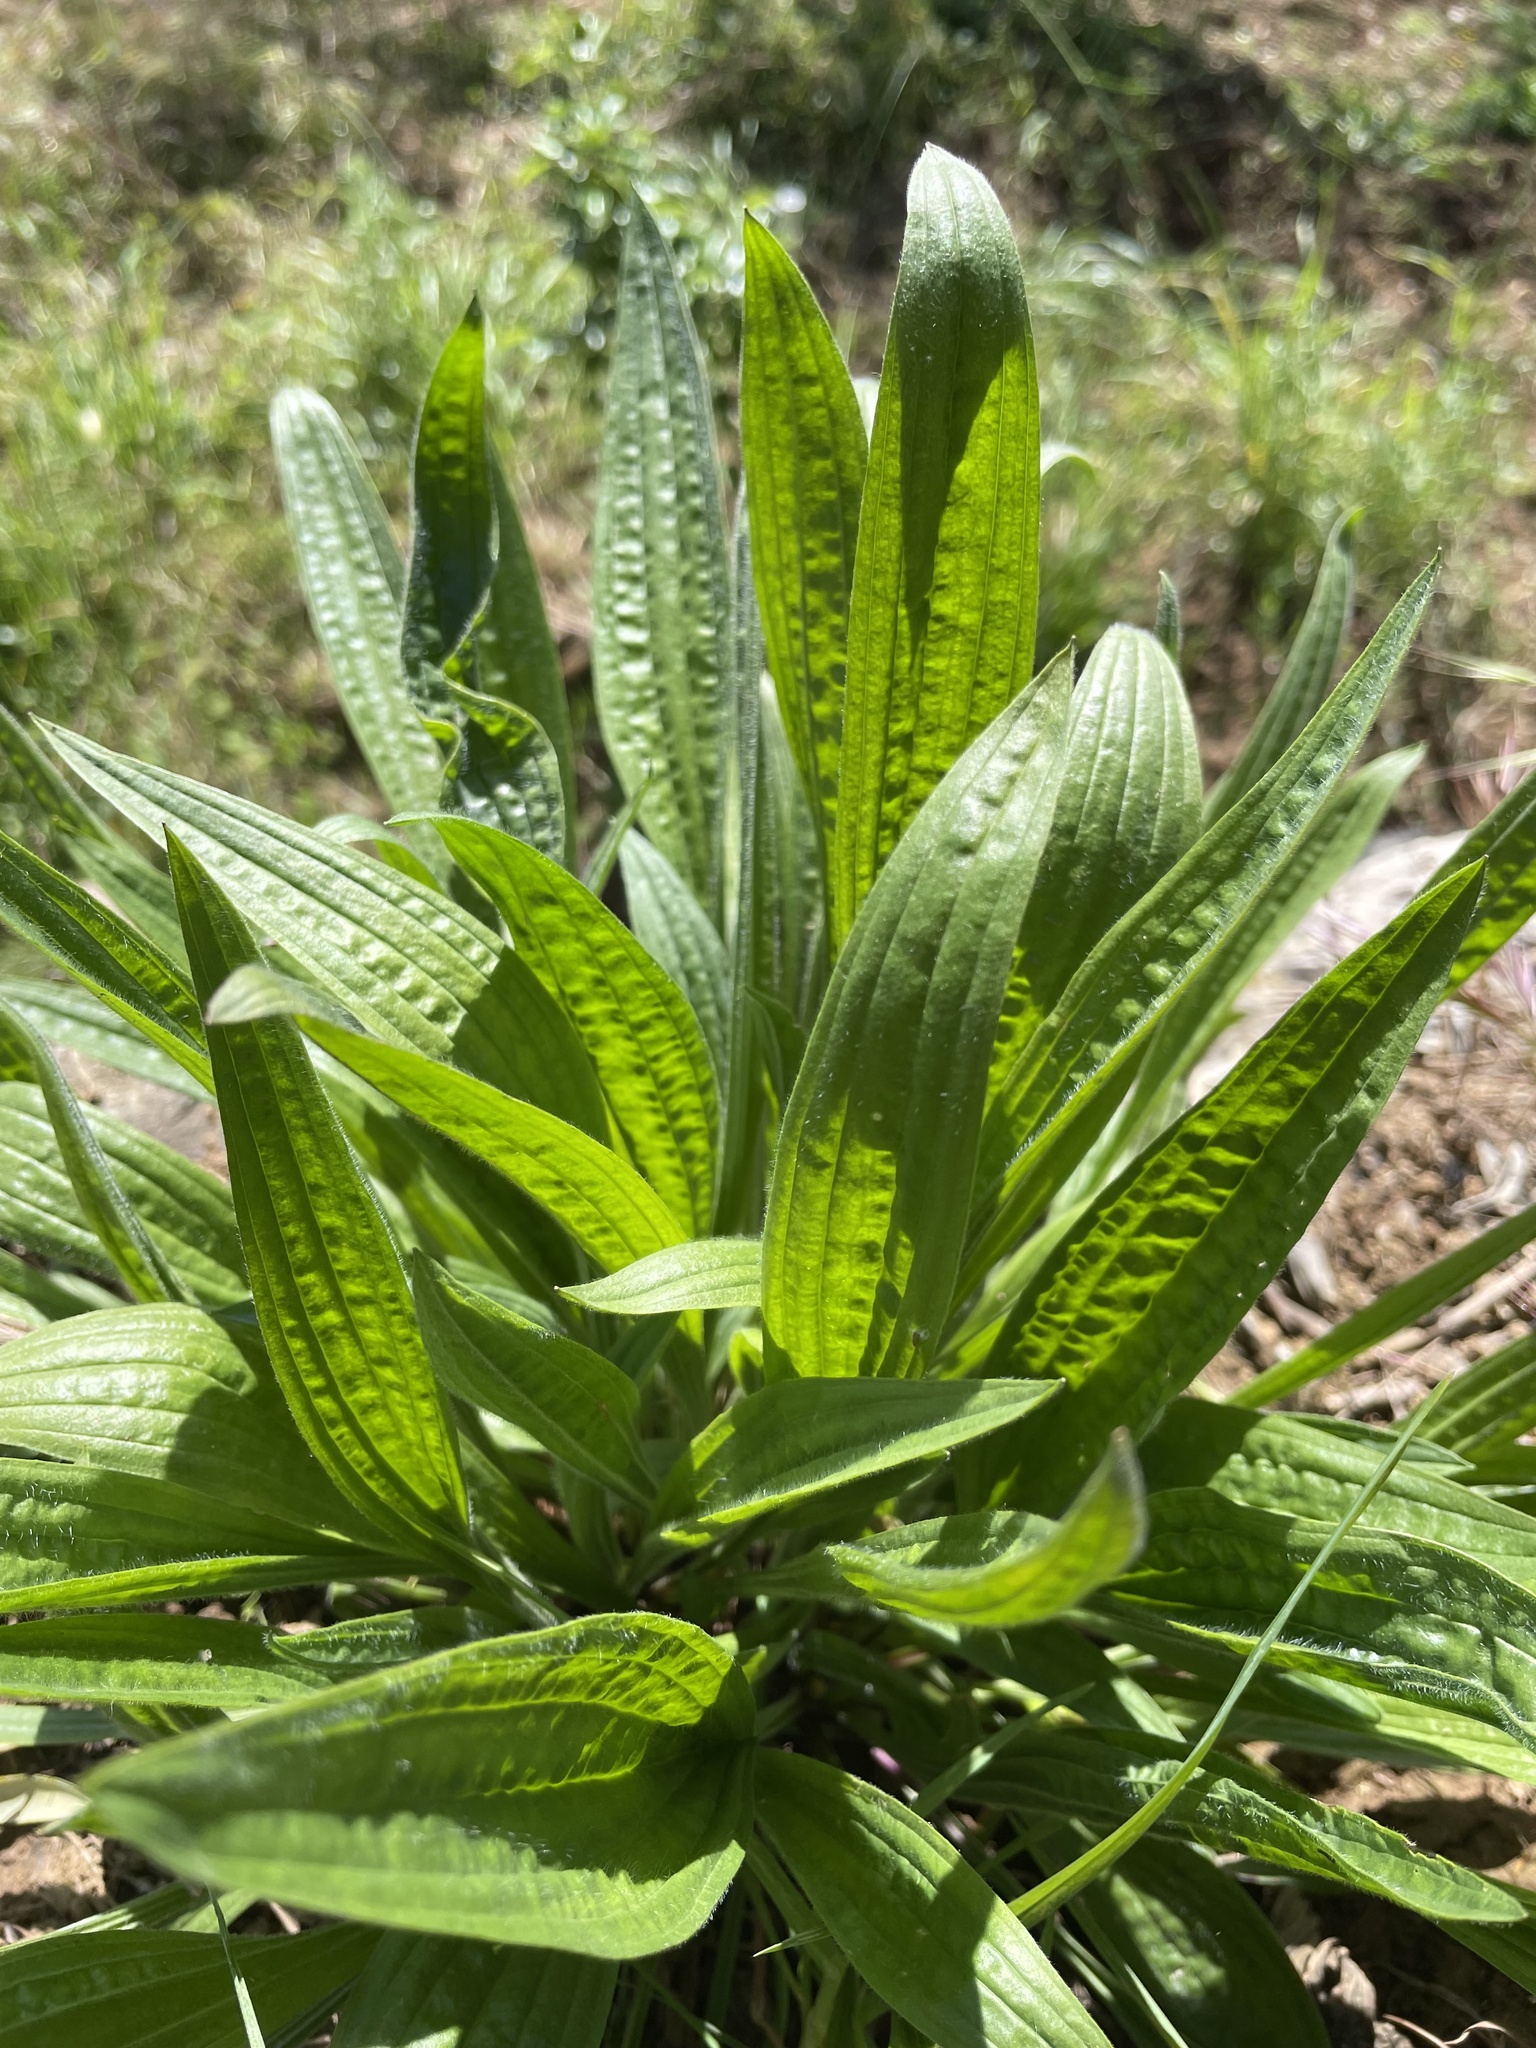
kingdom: Plantae
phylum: Tracheophyta
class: Magnoliopsida
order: Lamiales
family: Plantaginaceae
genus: Plantago
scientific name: Plantago lanceolata
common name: Ribwort plantain
